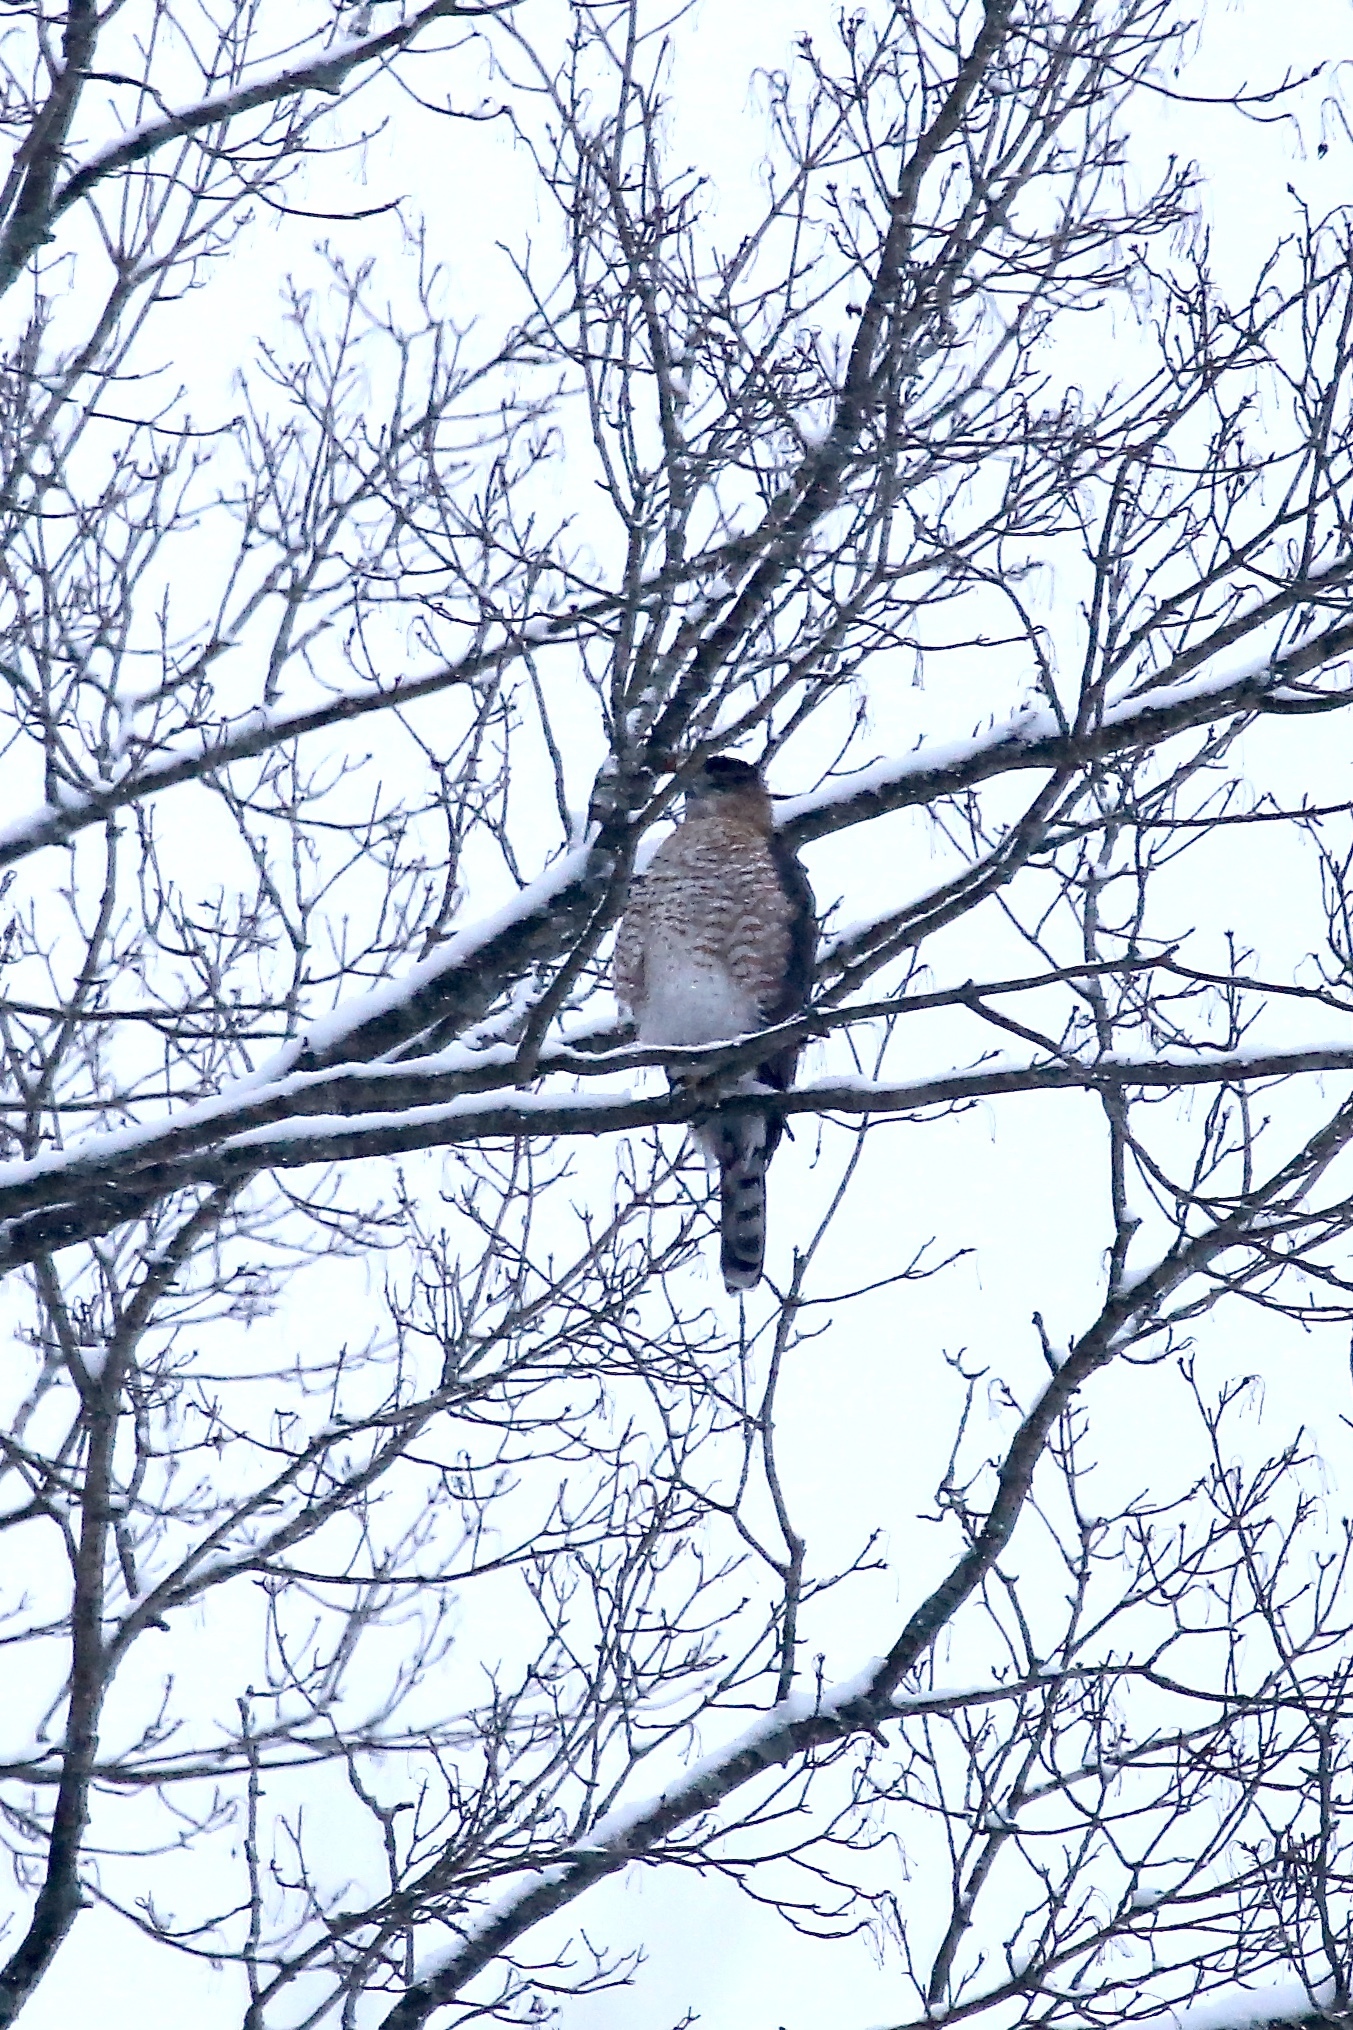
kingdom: Animalia
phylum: Chordata
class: Aves
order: Accipitriformes
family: Accipitridae
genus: Accipiter
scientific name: Accipiter cooperii
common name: Cooper's hawk
